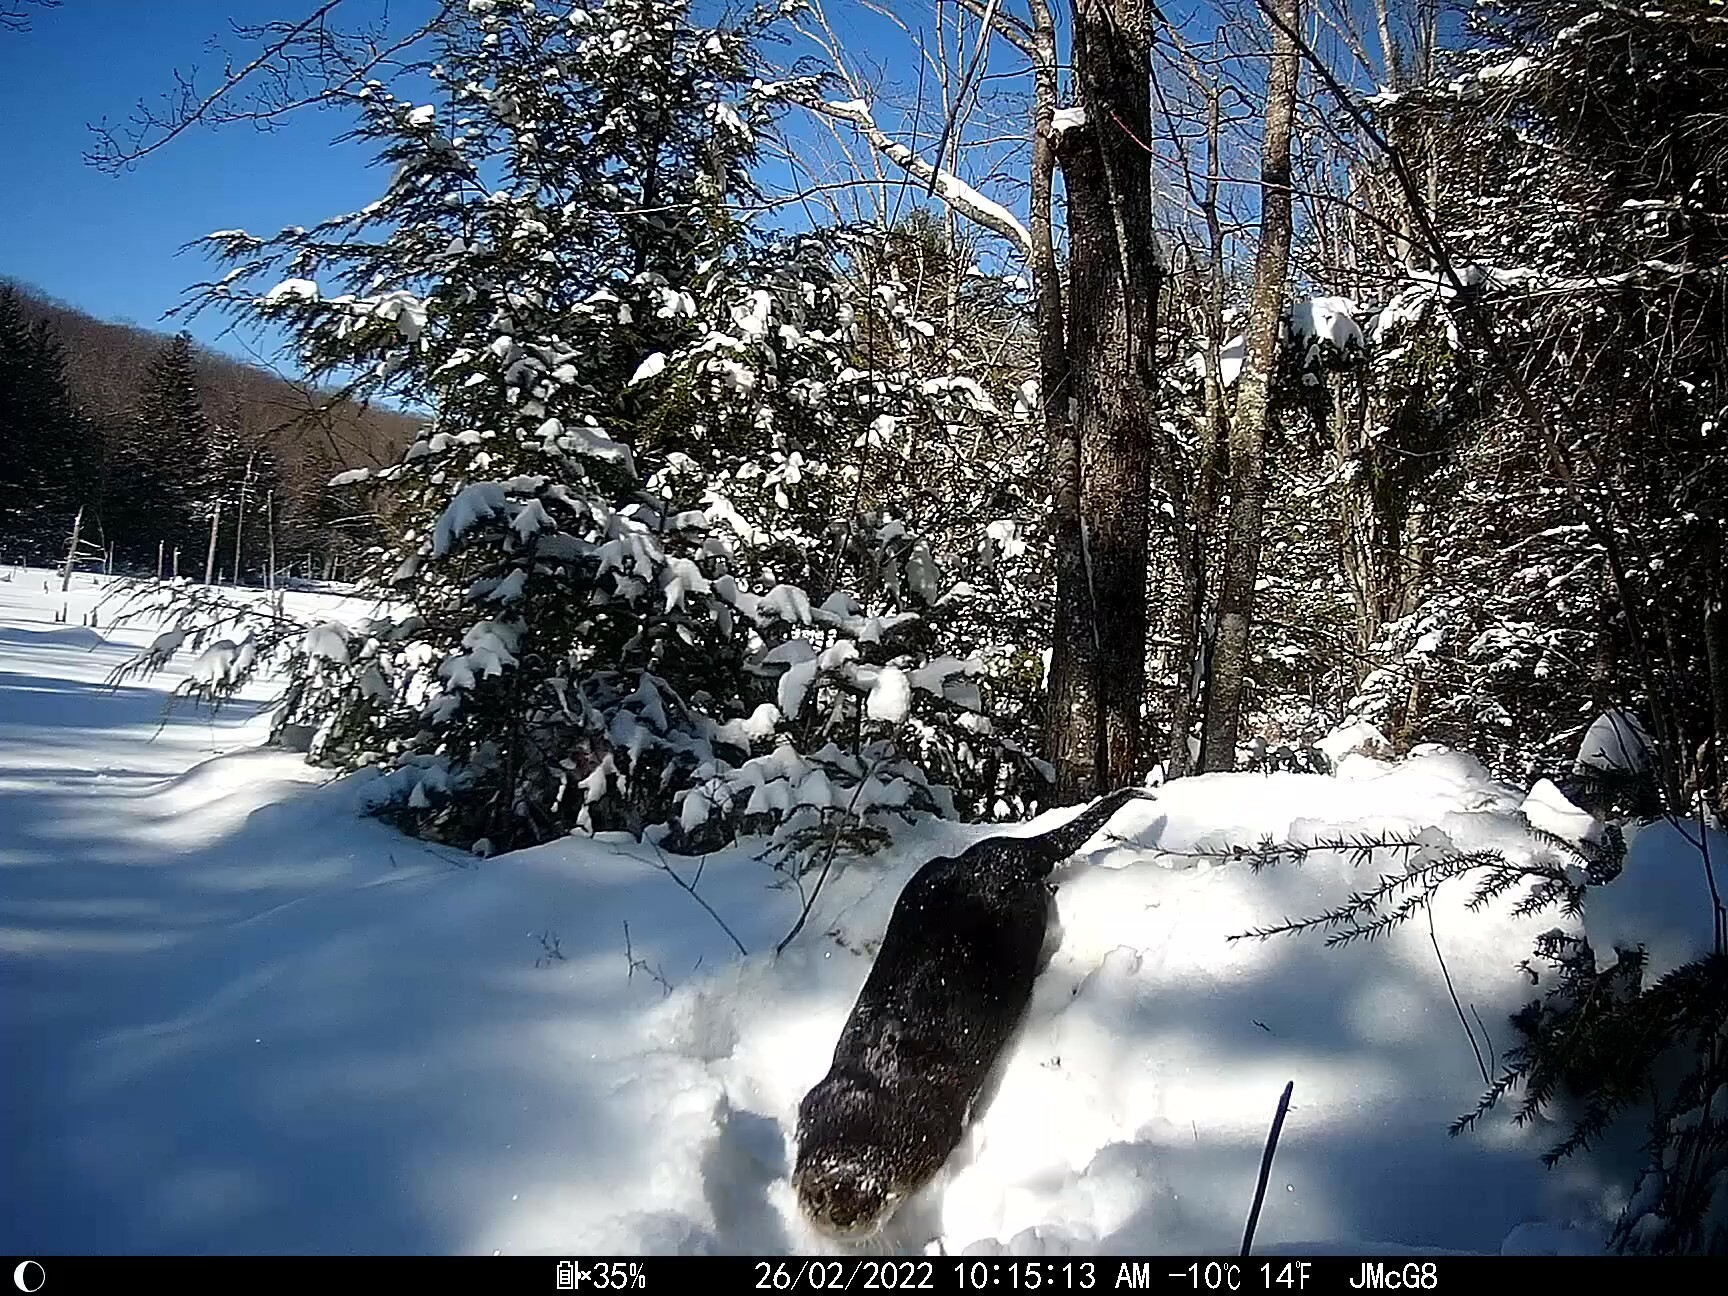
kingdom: Animalia
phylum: Chordata
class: Mammalia
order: Carnivora
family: Mustelidae
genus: Lontra
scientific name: Lontra canadensis
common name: North american river otter
